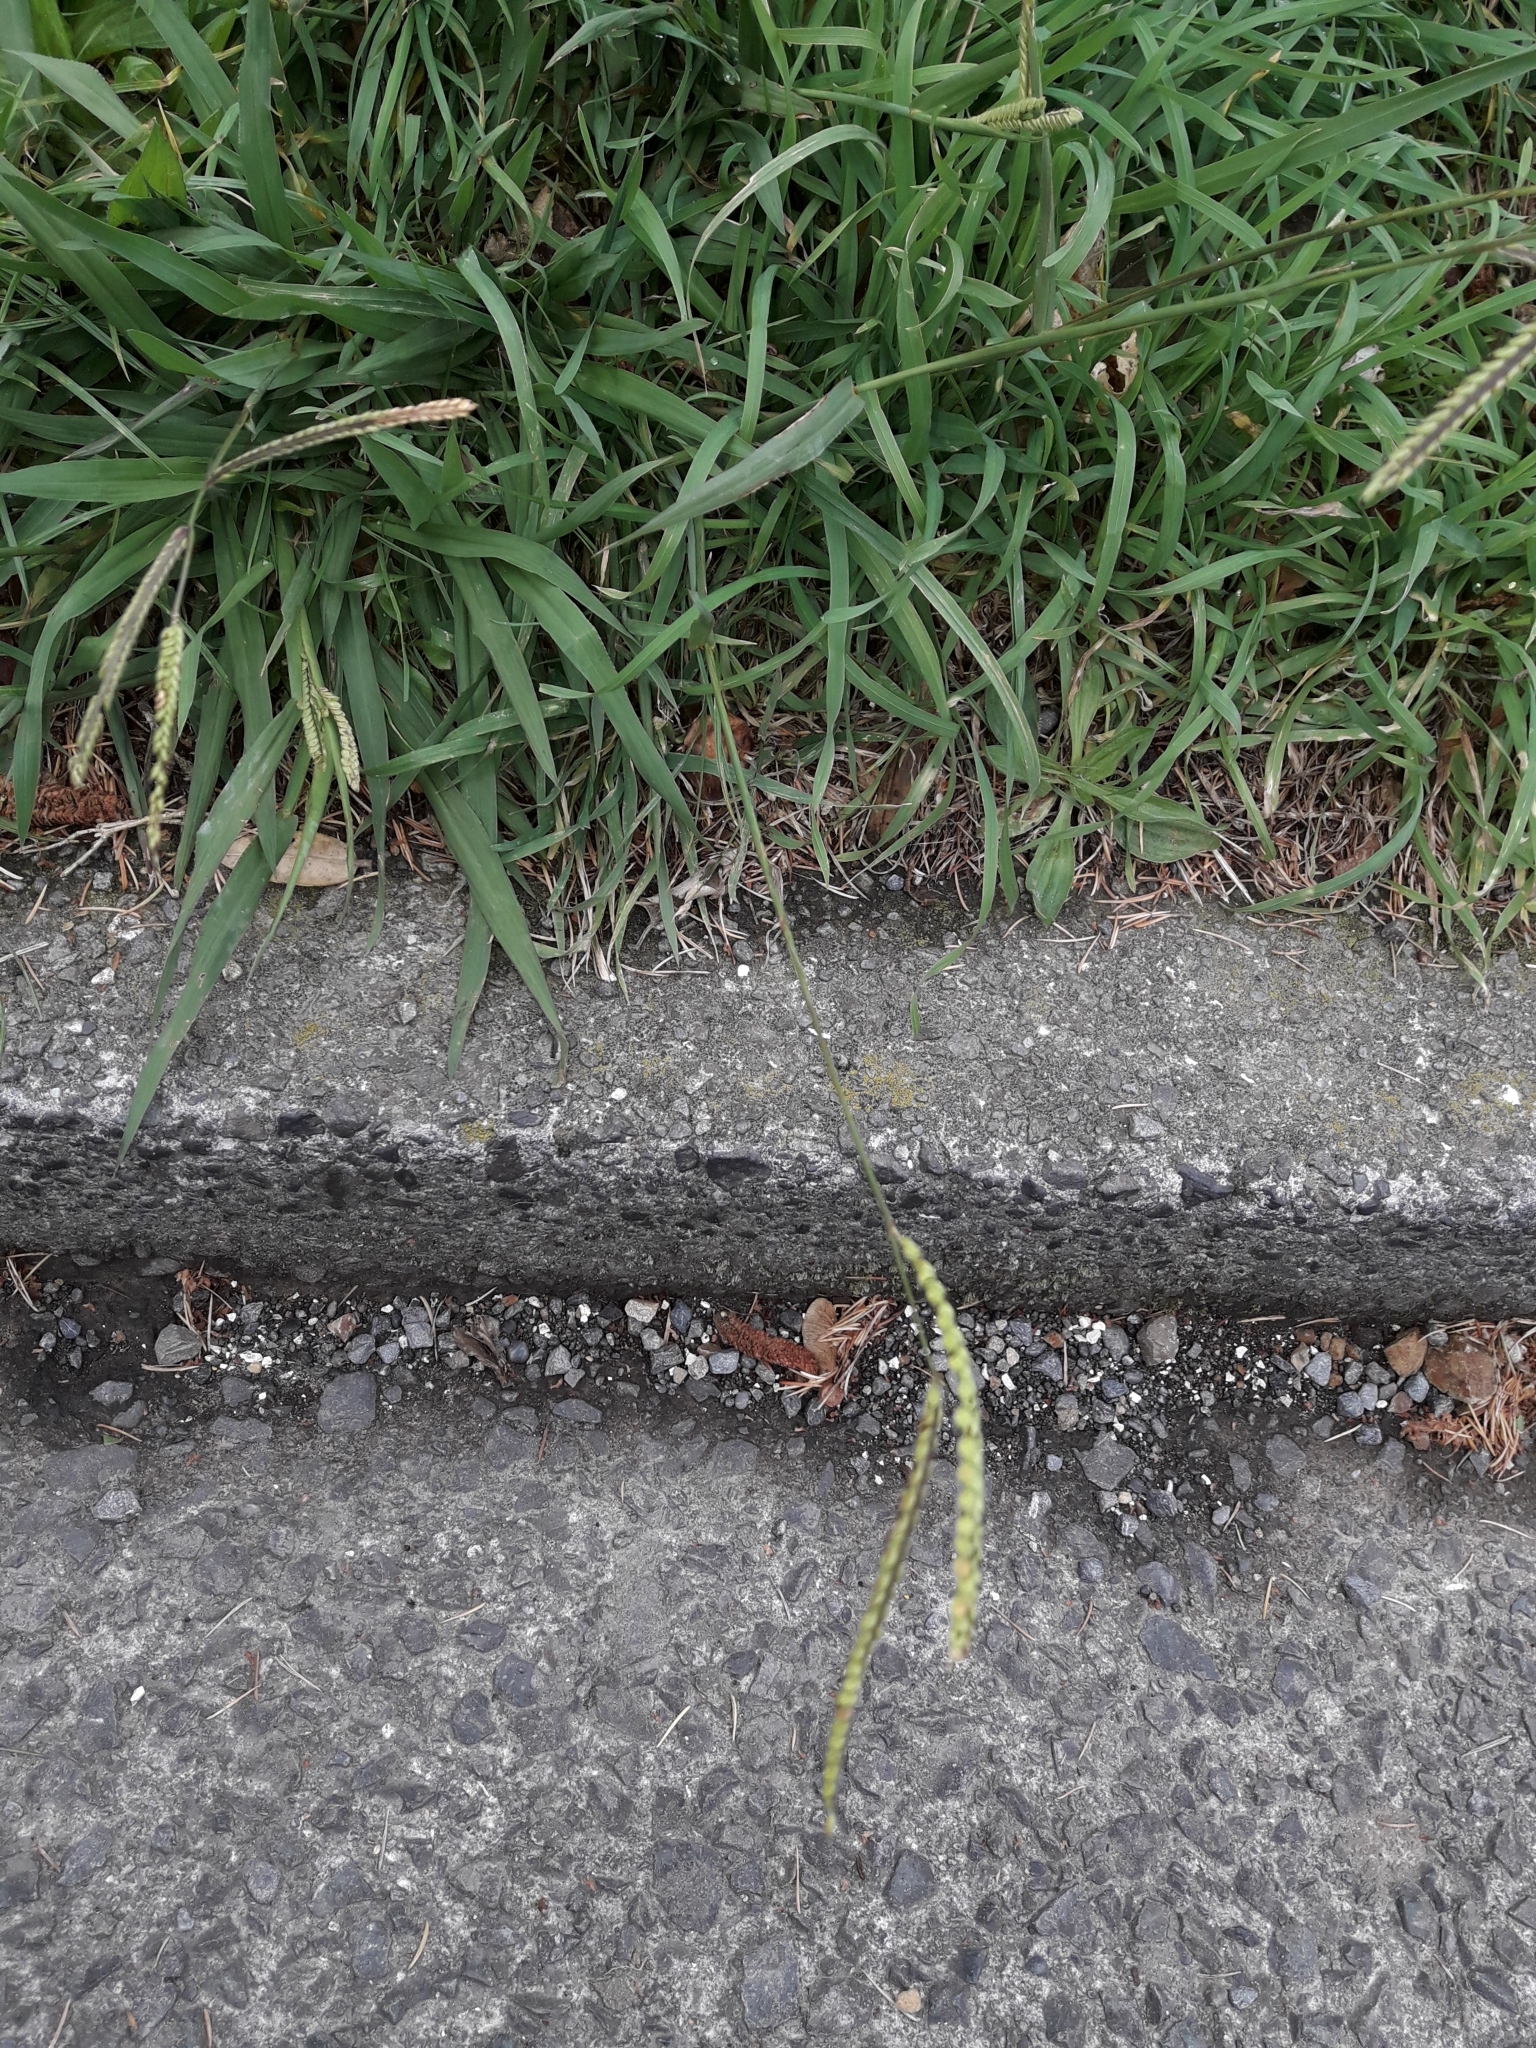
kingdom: Plantae
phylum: Tracheophyta
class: Liliopsida
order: Poales
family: Poaceae
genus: Paspalum
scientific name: Paspalum dilatatum
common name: Dallisgrass
